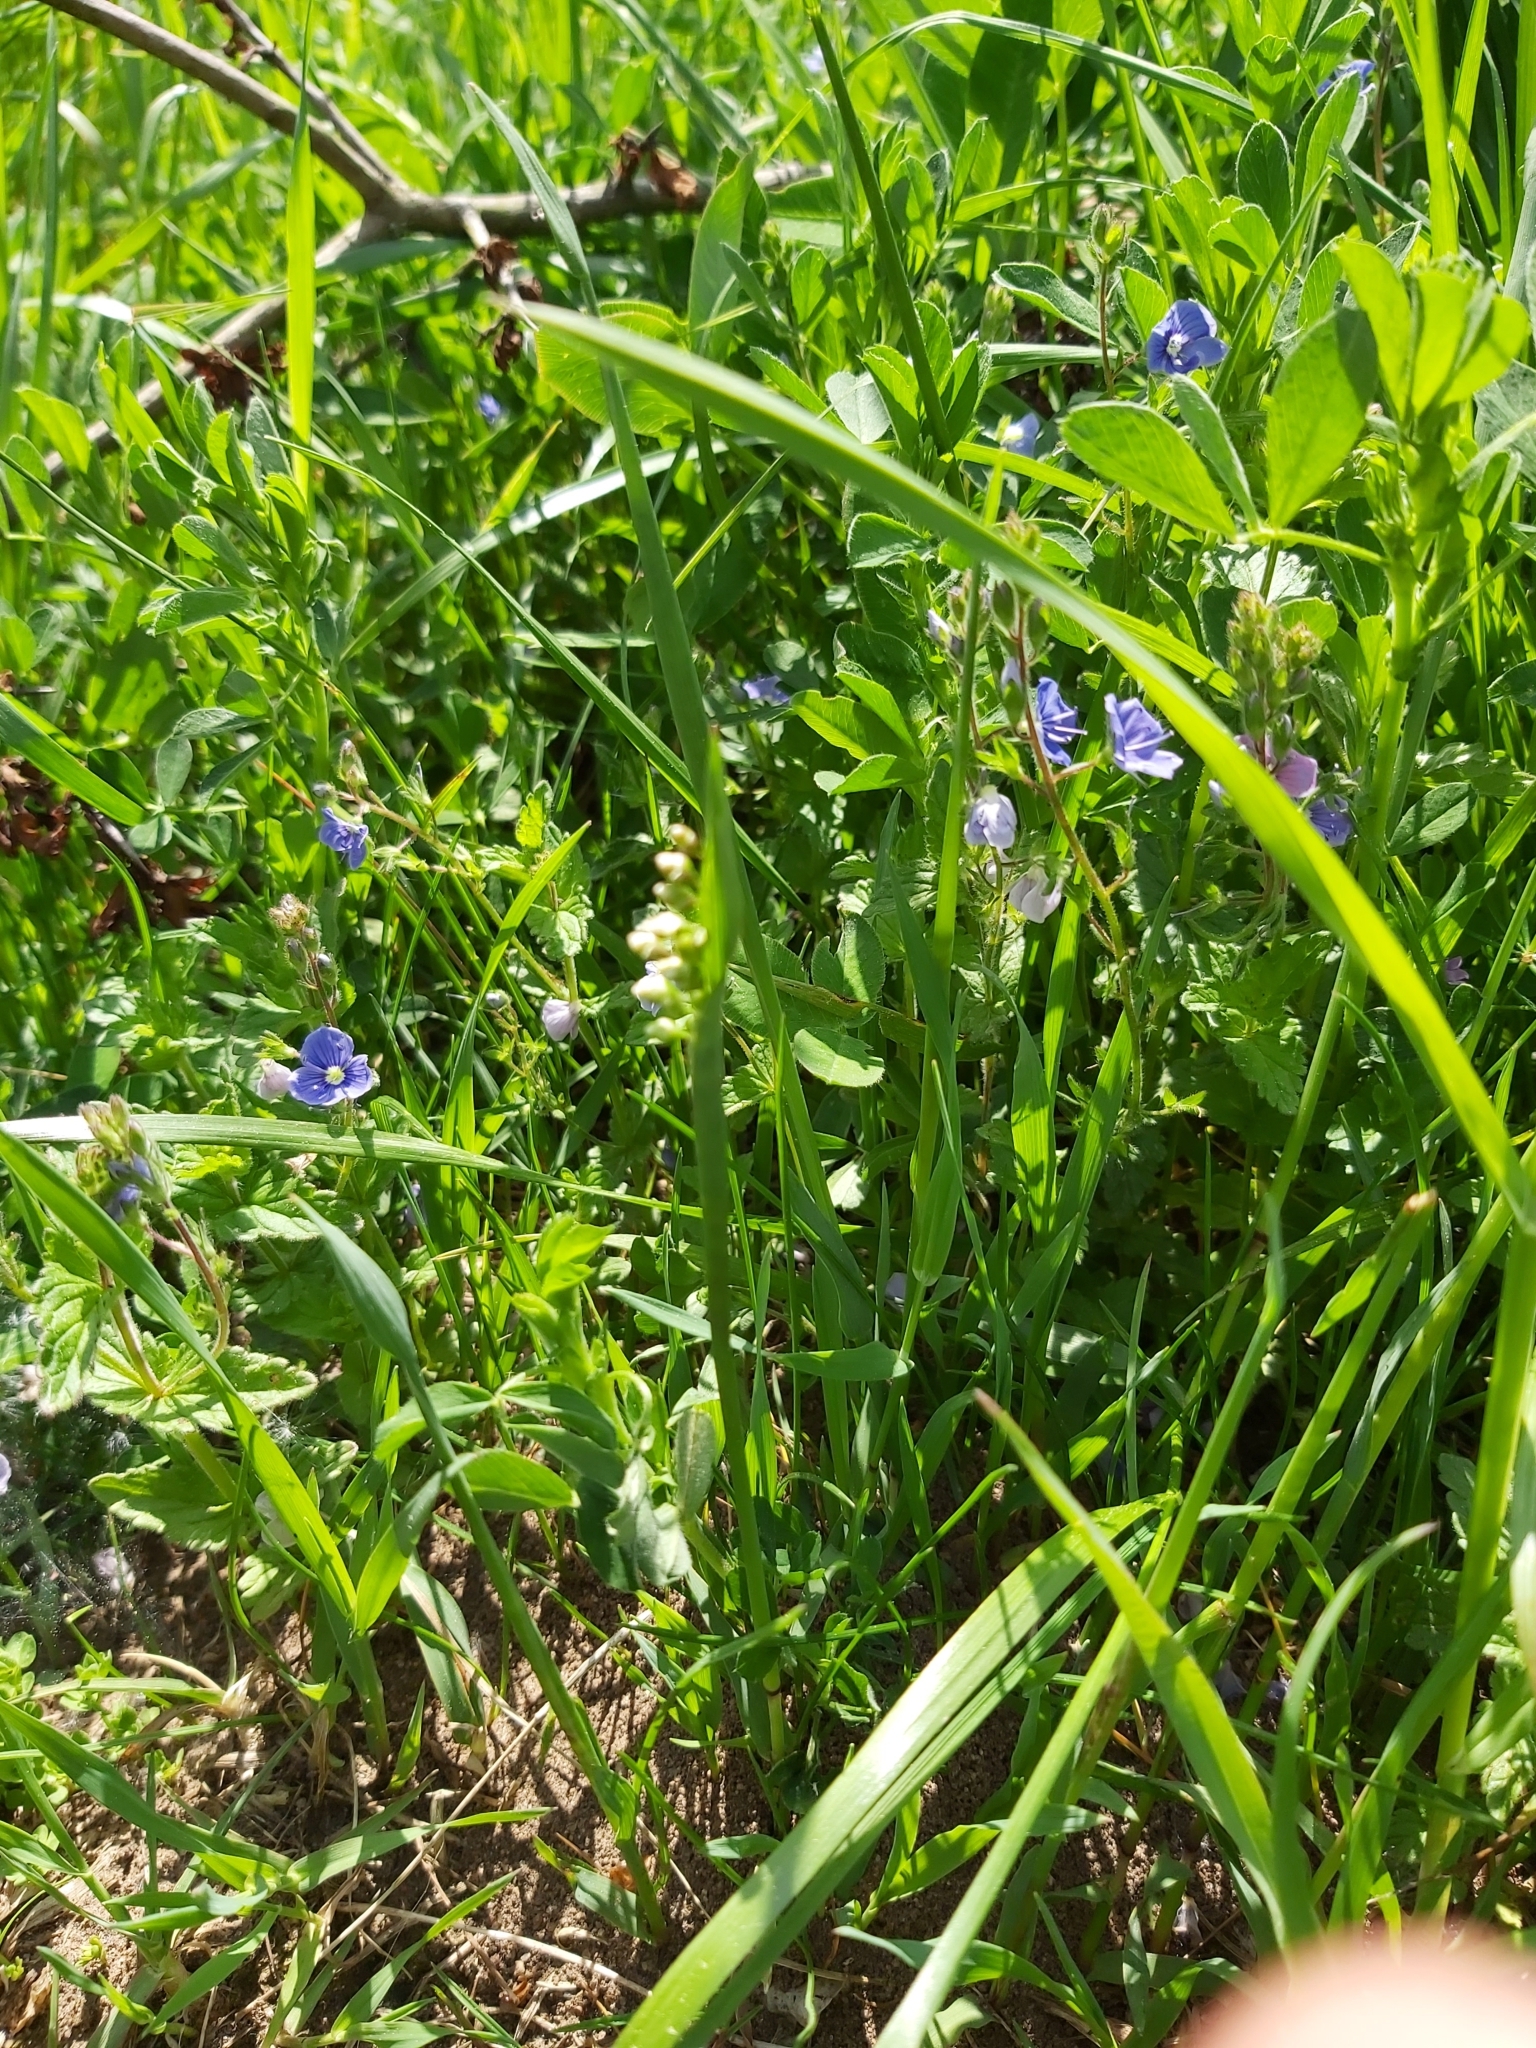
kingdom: Plantae
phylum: Tracheophyta
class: Liliopsida
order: Poales
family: Poaceae
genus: Briza
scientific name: Briza media
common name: Quaking grass
